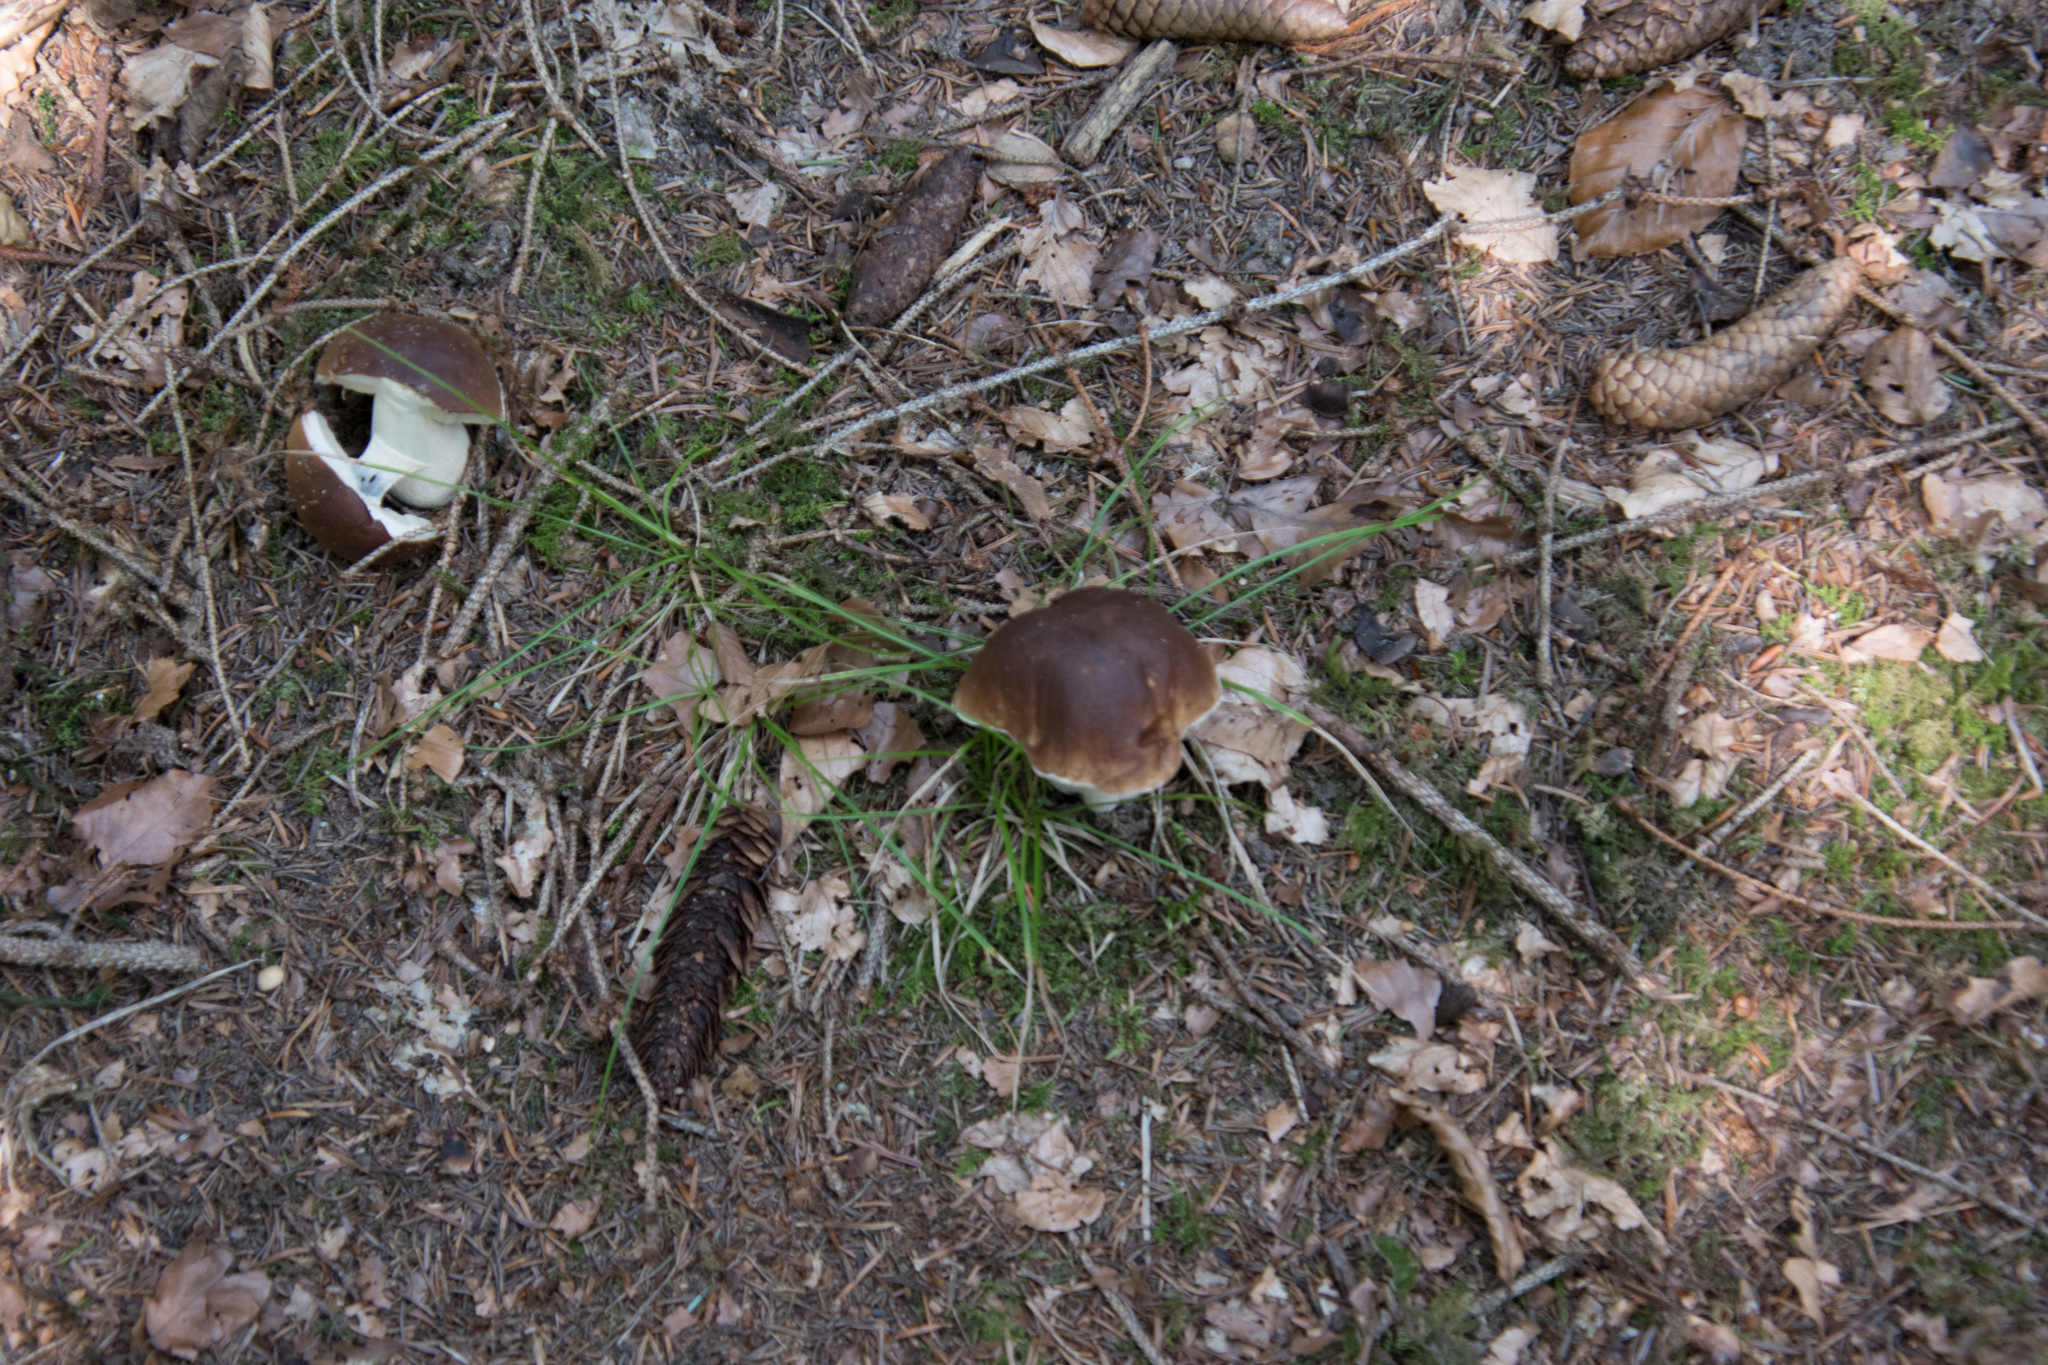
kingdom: Fungi
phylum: Basidiomycota
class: Agaricomycetes
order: Boletales
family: Boletaceae
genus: Boletus
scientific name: Boletus edulis
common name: Cep
